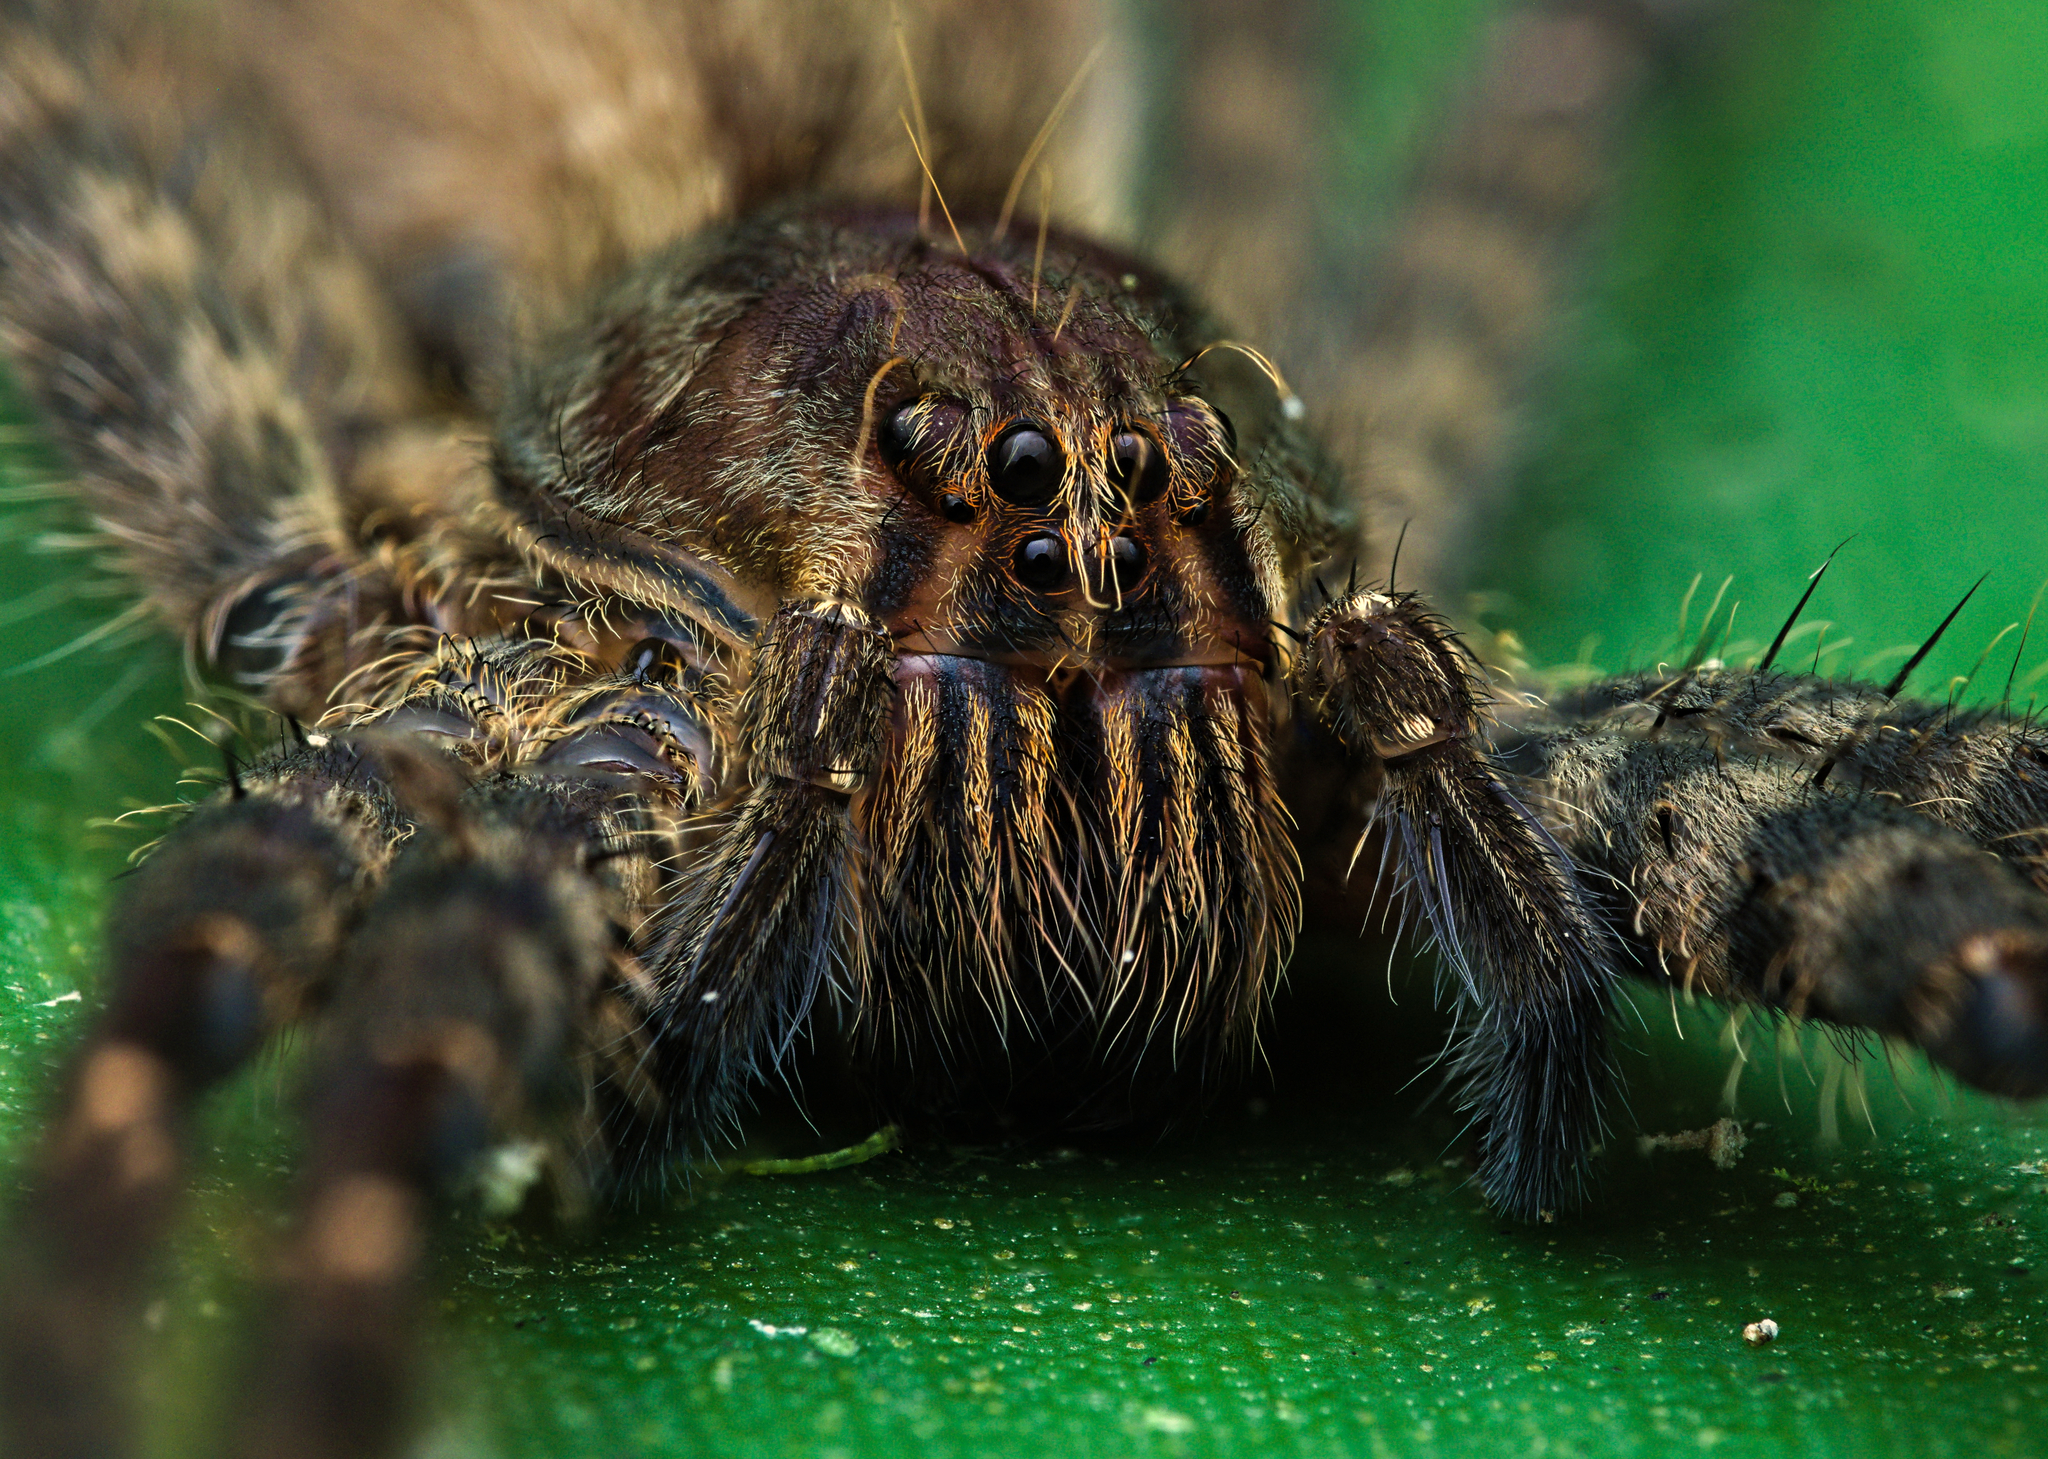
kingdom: Animalia
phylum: Arthropoda
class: Arachnida
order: Araneae
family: Trechaleidae
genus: Cupiennius
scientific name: Cupiennius salei
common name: Wandering spiders
